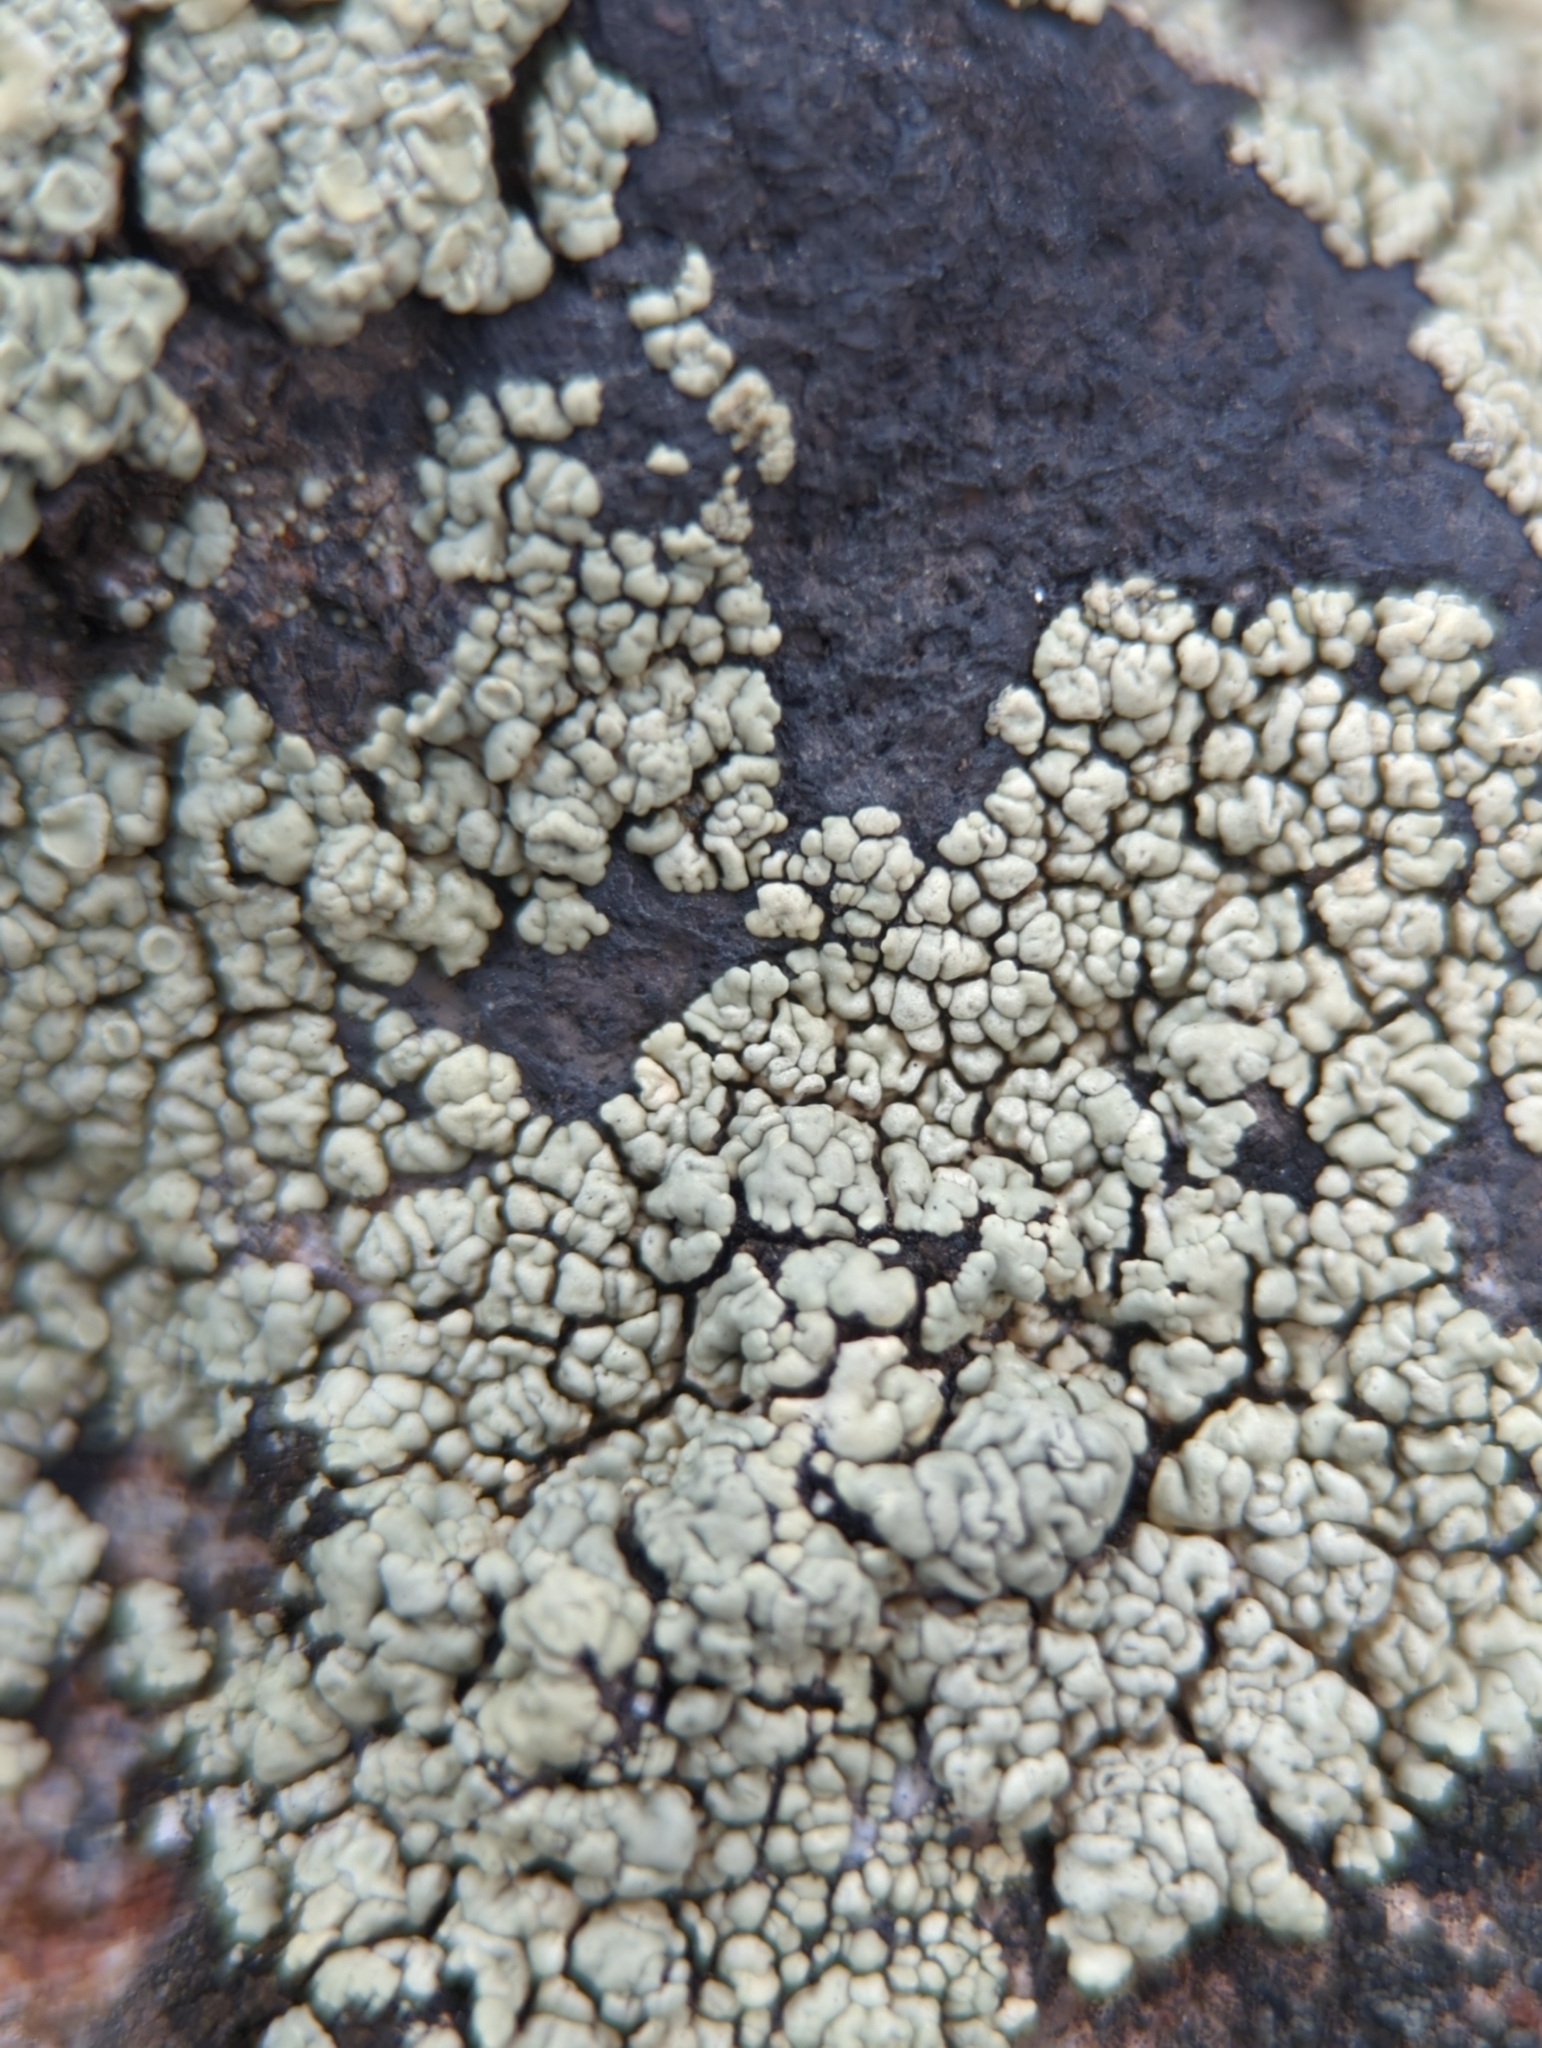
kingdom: Fungi
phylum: Ascomycota
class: Lecanoromycetes
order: Lecanorales
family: Lecanoraceae
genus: Sedelnikovaea
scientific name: Sedelnikovaea subdiscrepans
